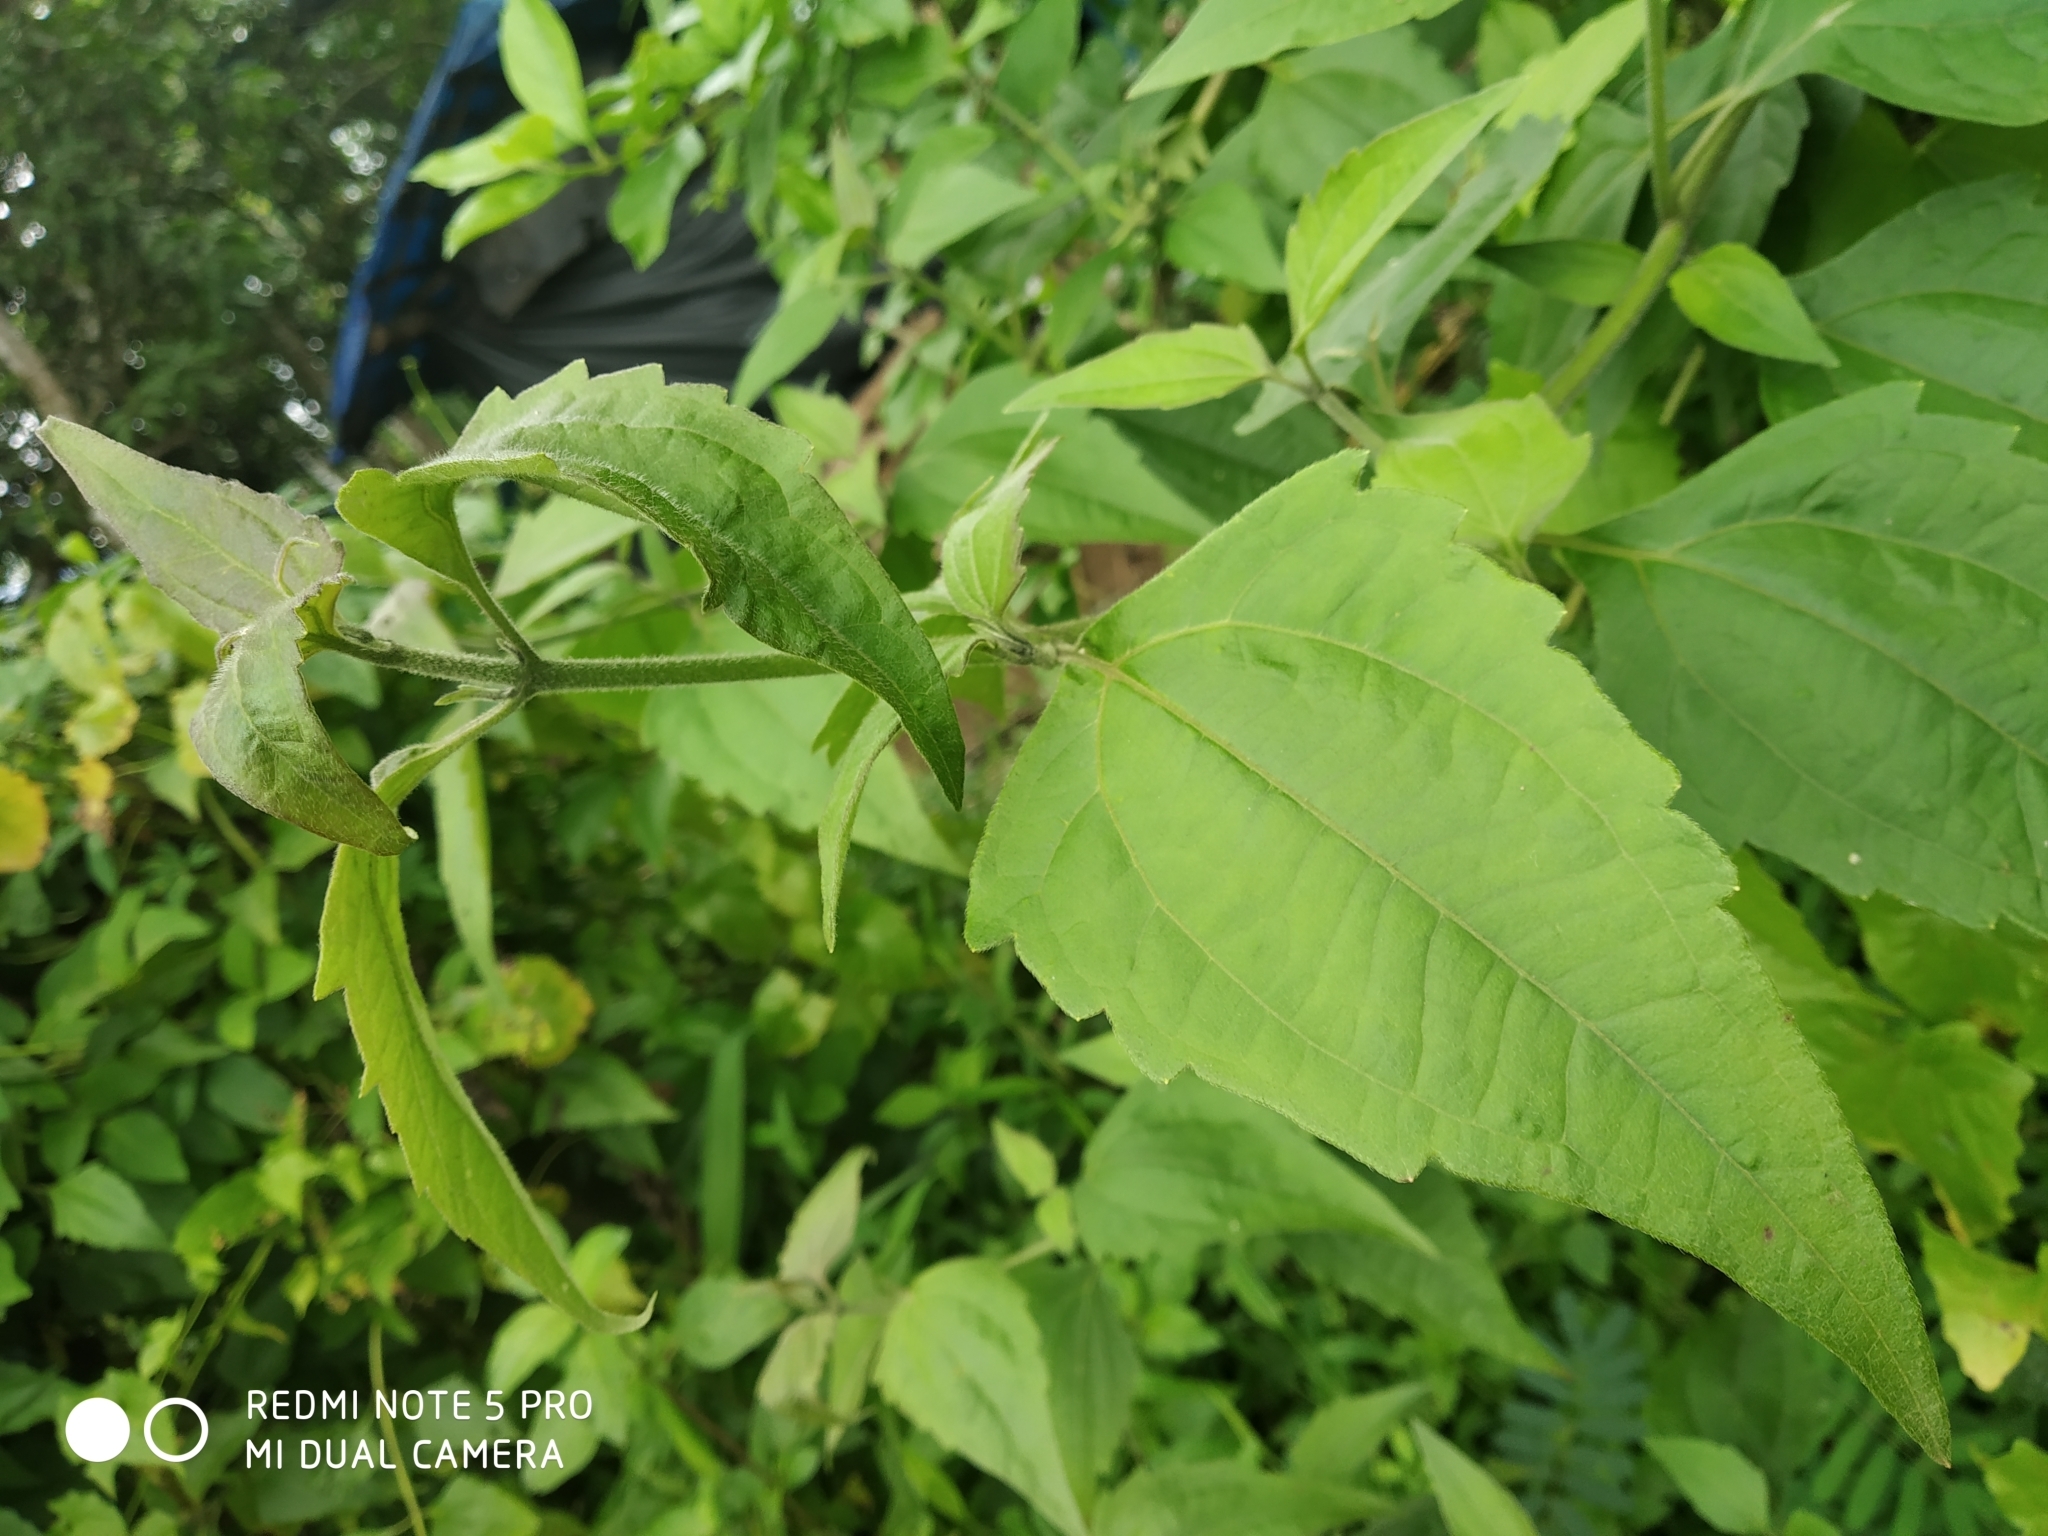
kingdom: Plantae
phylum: Tracheophyta
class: Magnoliopsida
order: Asterales
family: Asteraceae
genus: Chromolaena
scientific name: Chromolaena odorata
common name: Siamweed
